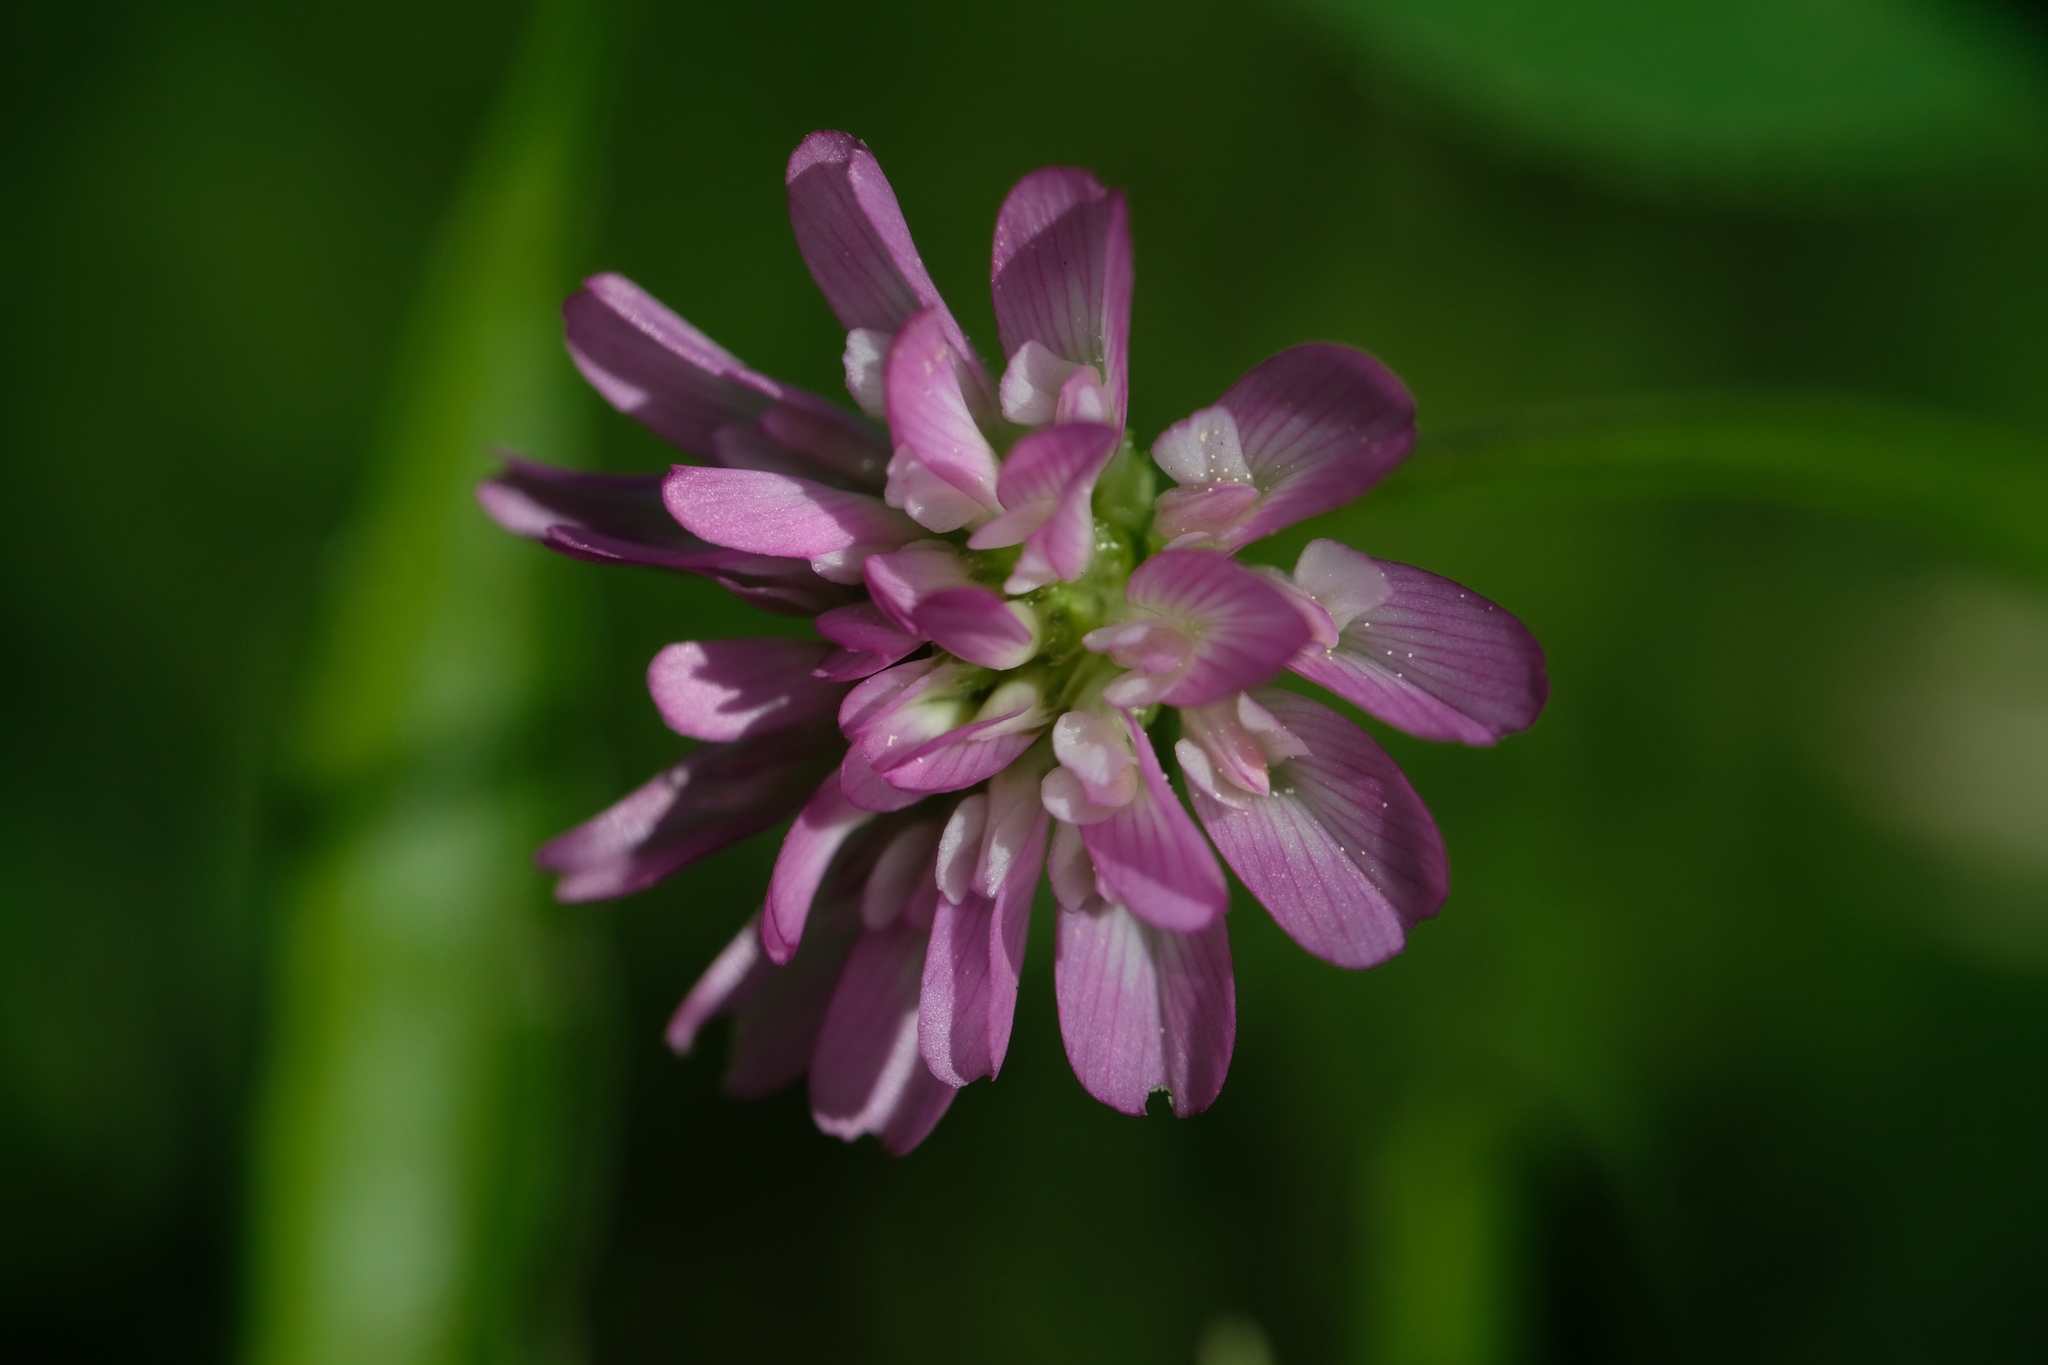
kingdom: Plantae
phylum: Tracheophyta
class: Magnoliopsida
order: Fabales
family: Fabaceae
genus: Trifolium
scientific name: Trifolium resupinatum
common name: Reversed clover
